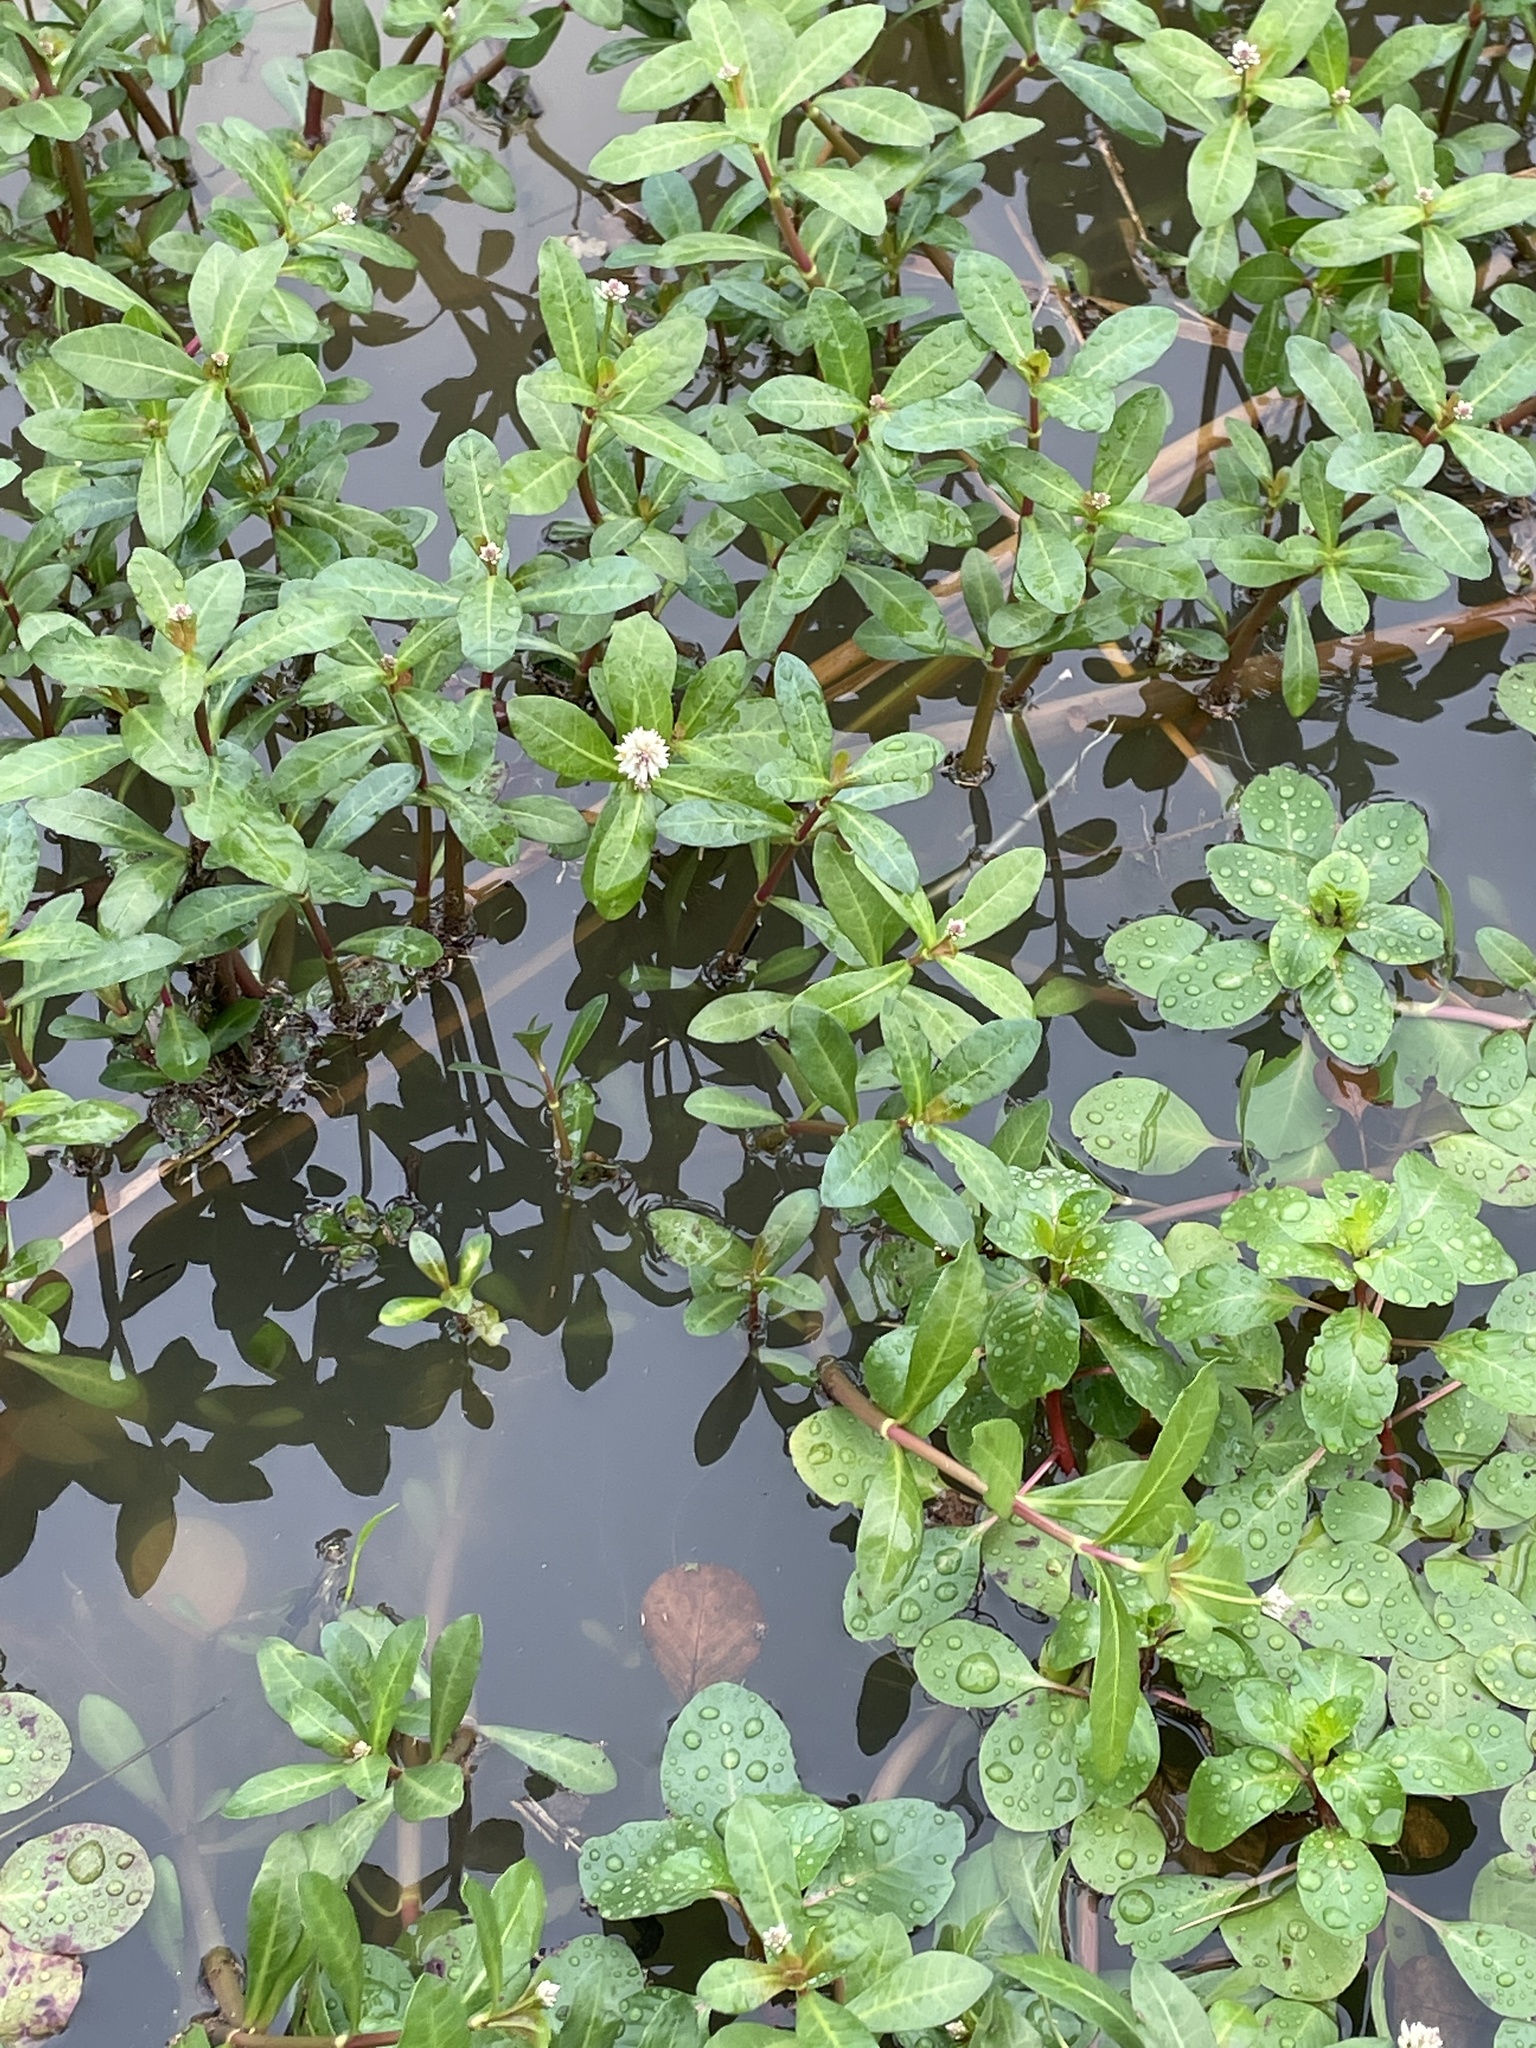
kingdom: Plantae
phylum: Tracheophyta
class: Magnoliopsida
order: Caryophyllales
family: Amaranthaceae
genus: Alternanthera
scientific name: Alternanthera philoxeroides
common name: Alligatorweed
